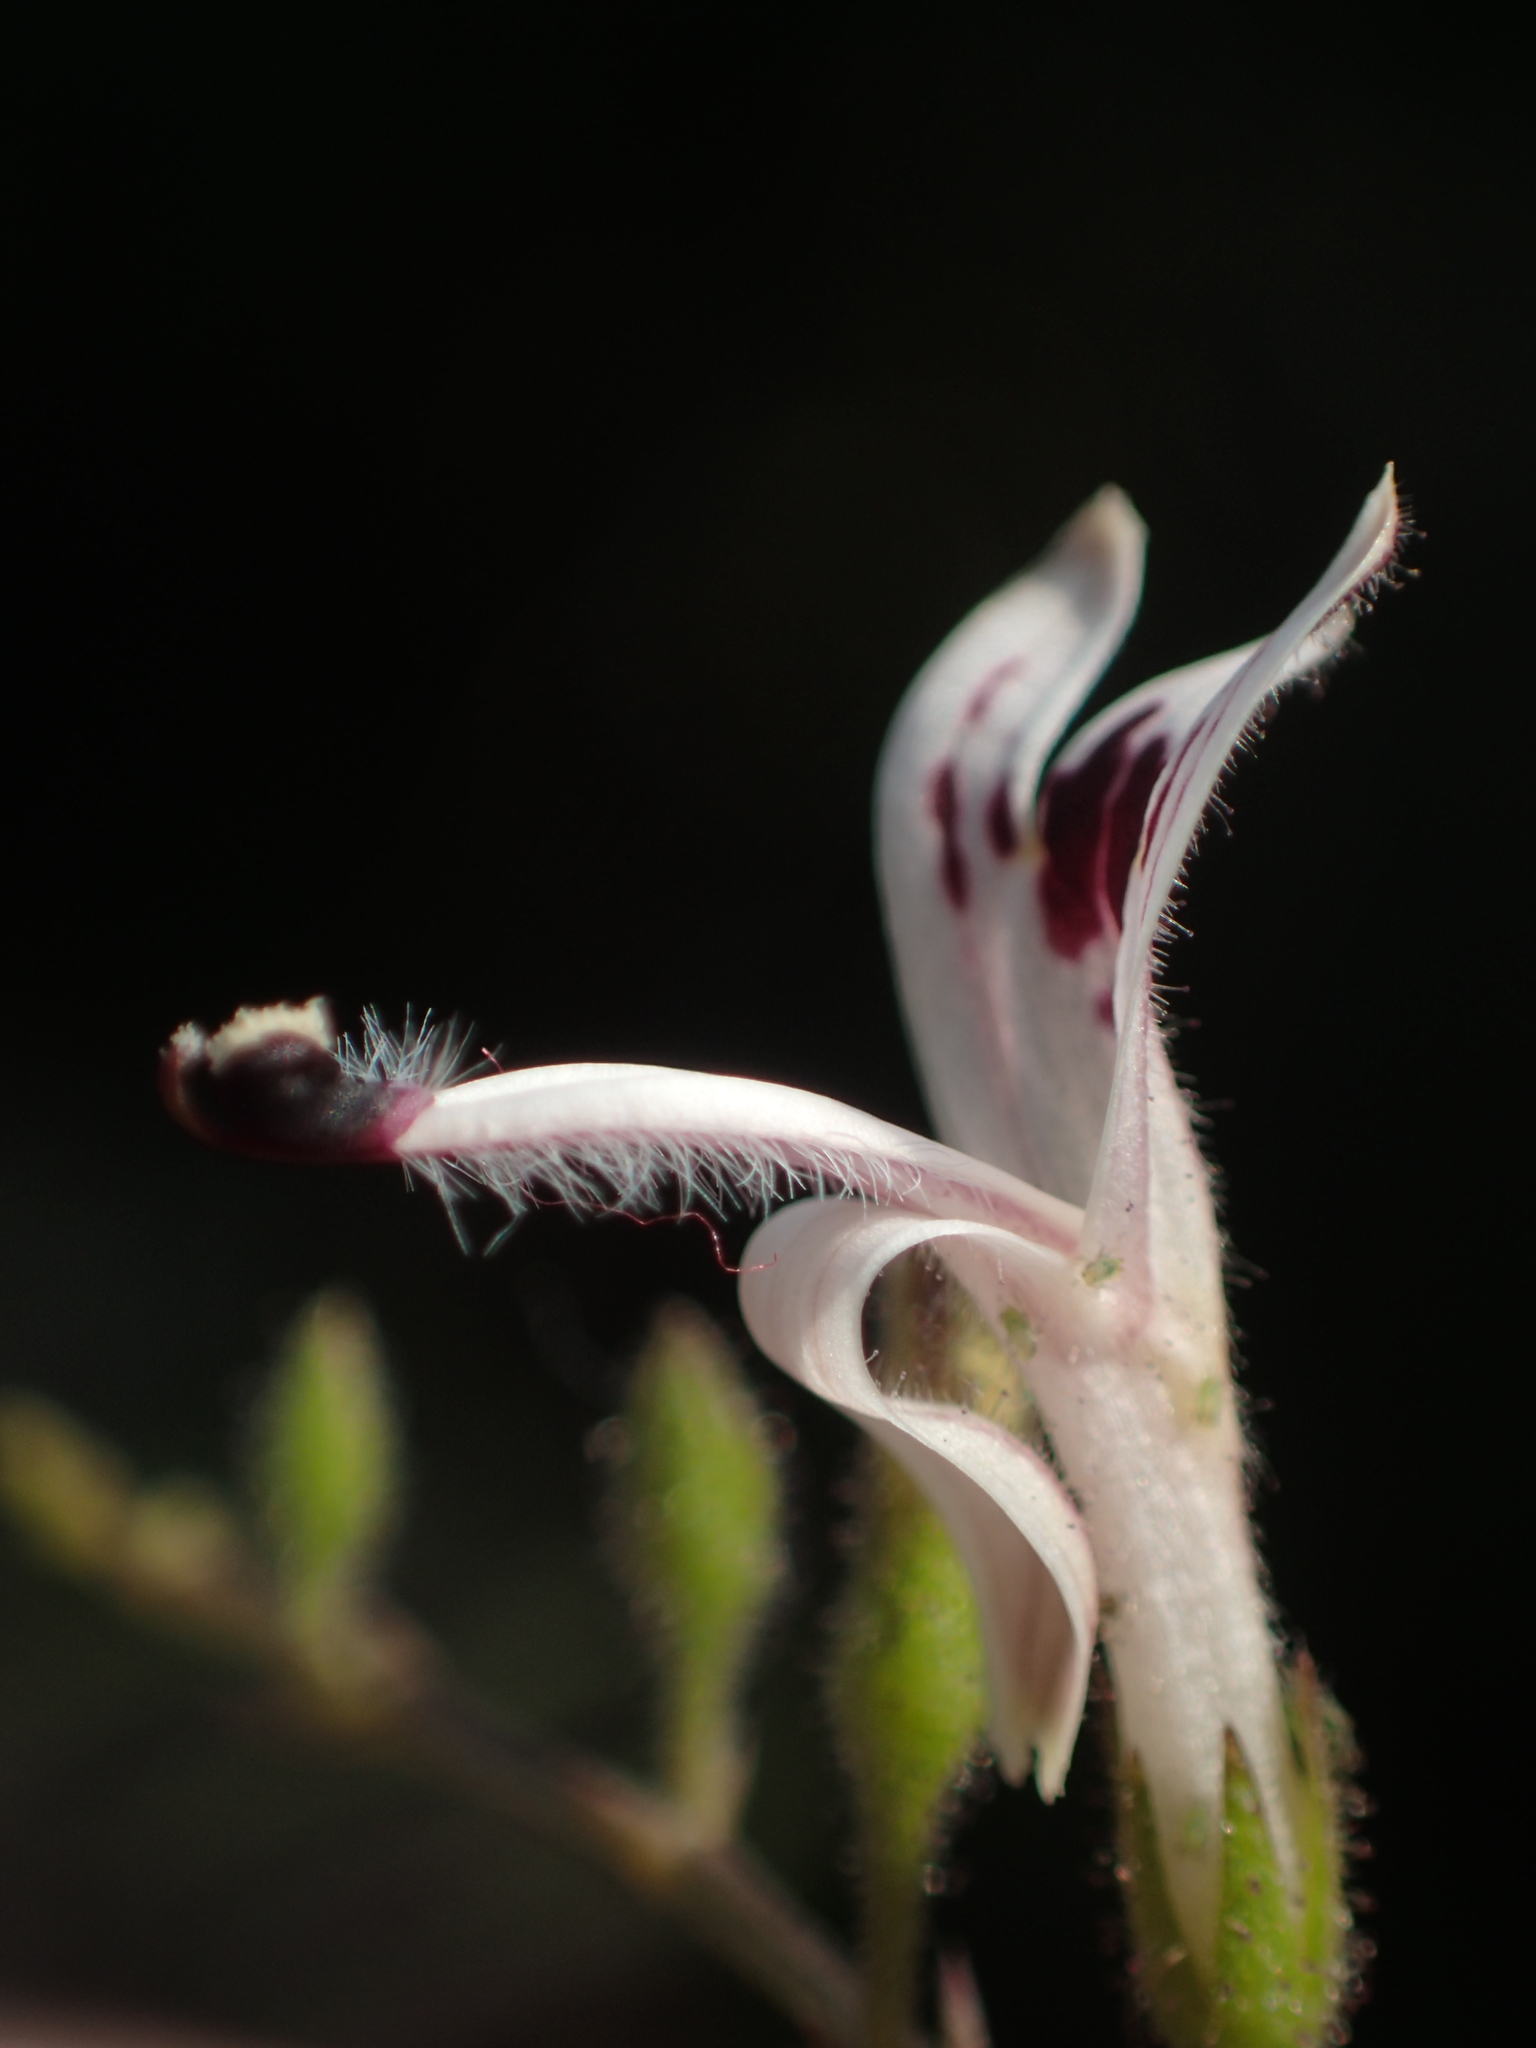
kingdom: Plantae
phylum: Tracheophyta
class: Magnoliopsida
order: Lamiales
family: Acanthaceae
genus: Andrographis
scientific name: Andrographis paniculata
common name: Green chireta
